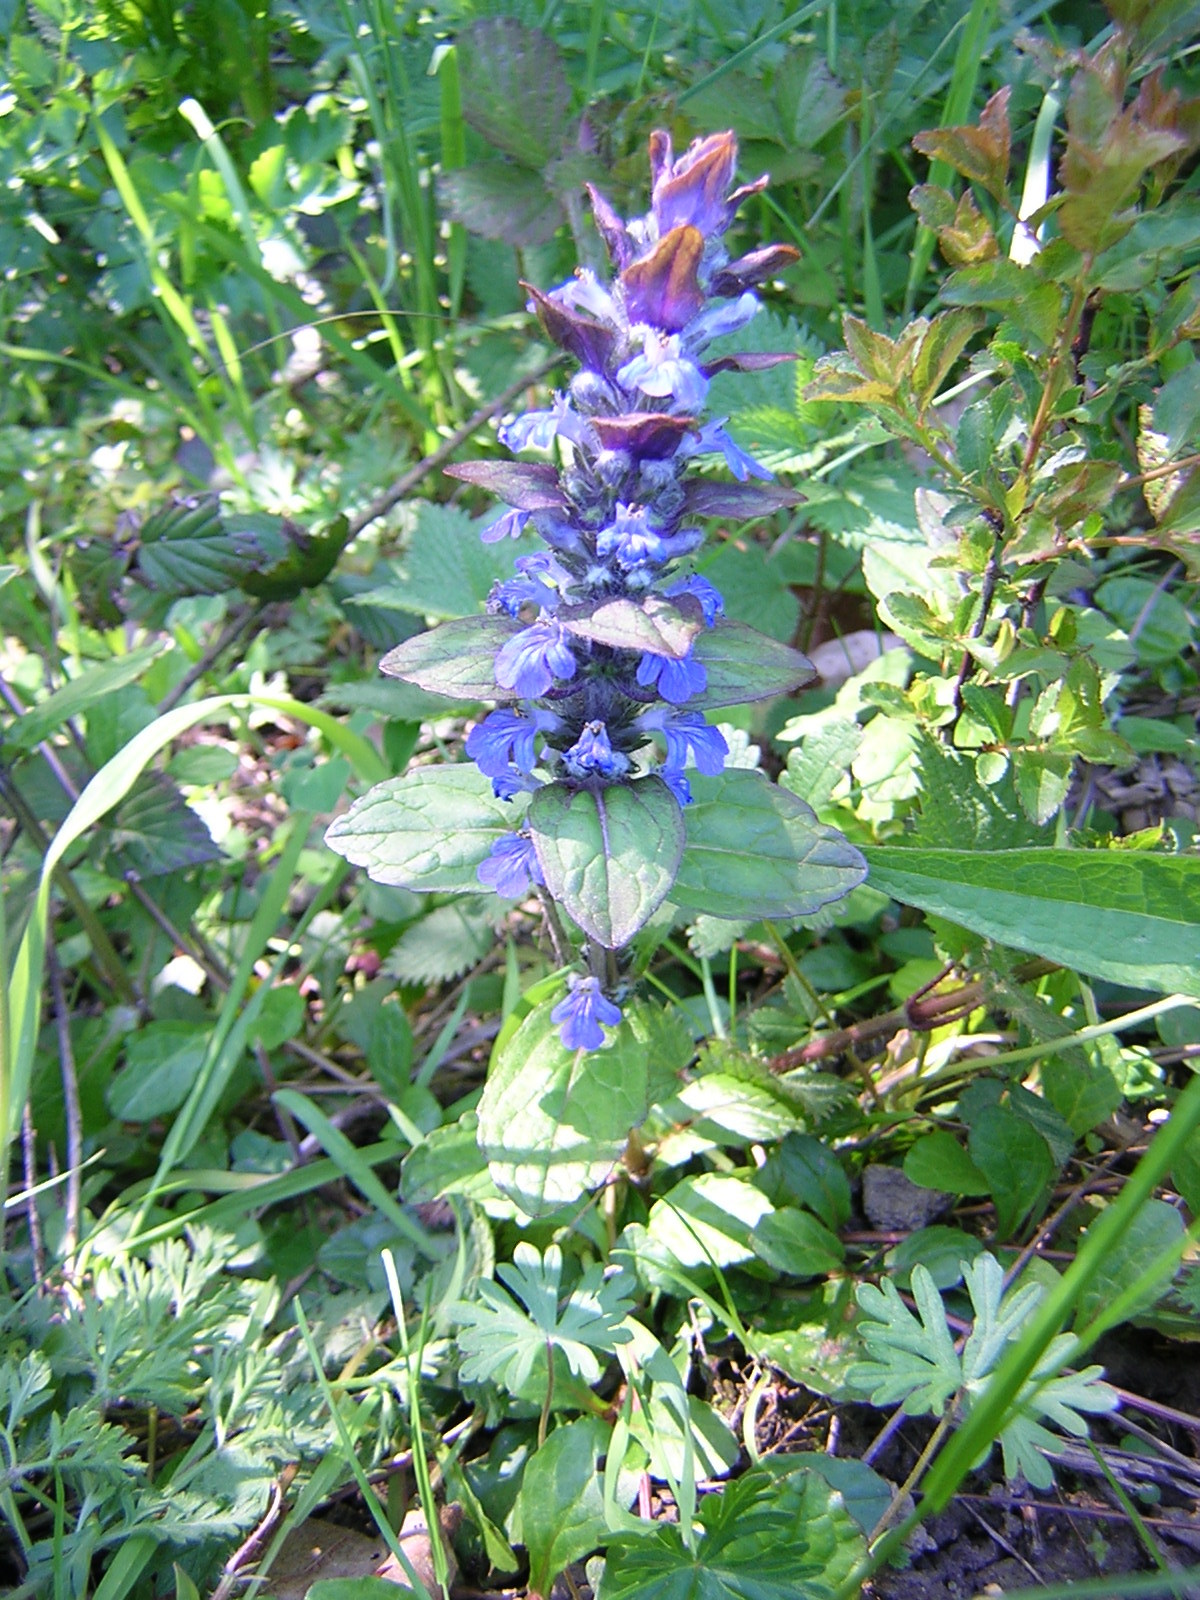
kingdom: Plantae
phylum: Tracheophyta
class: Magnoliopsida
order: Lamiales
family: Lamiaceae
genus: Ajuga
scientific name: Ajuga reptans
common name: Bugle
